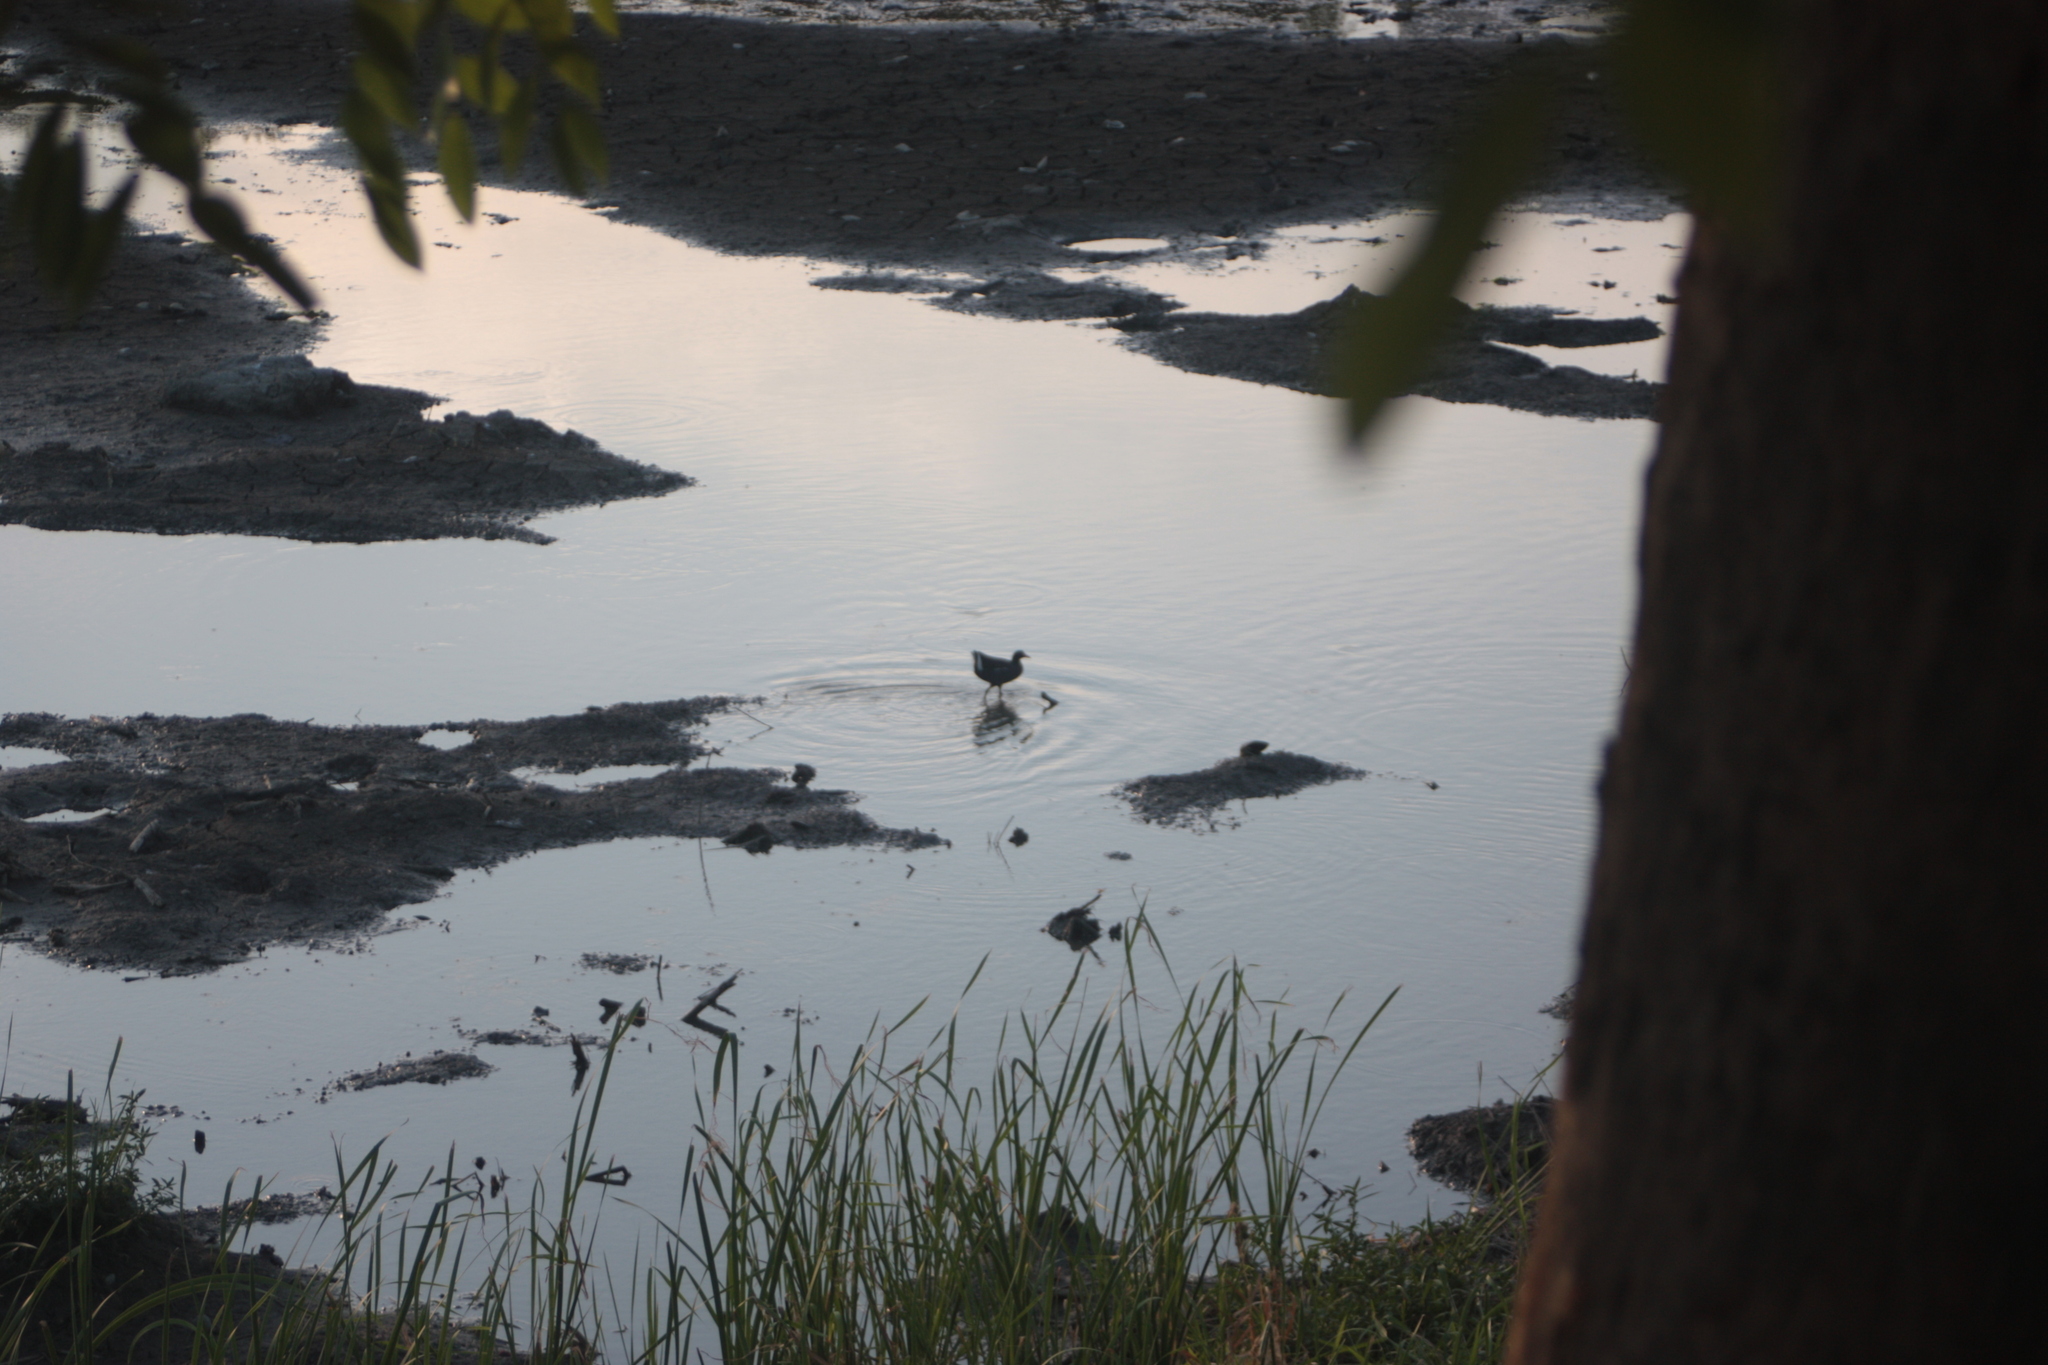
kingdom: Animalia
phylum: Chordata
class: Aves
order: Gruiformes
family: Rallidae
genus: Gallinula
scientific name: Gallinula chloropus
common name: Common moorhen
